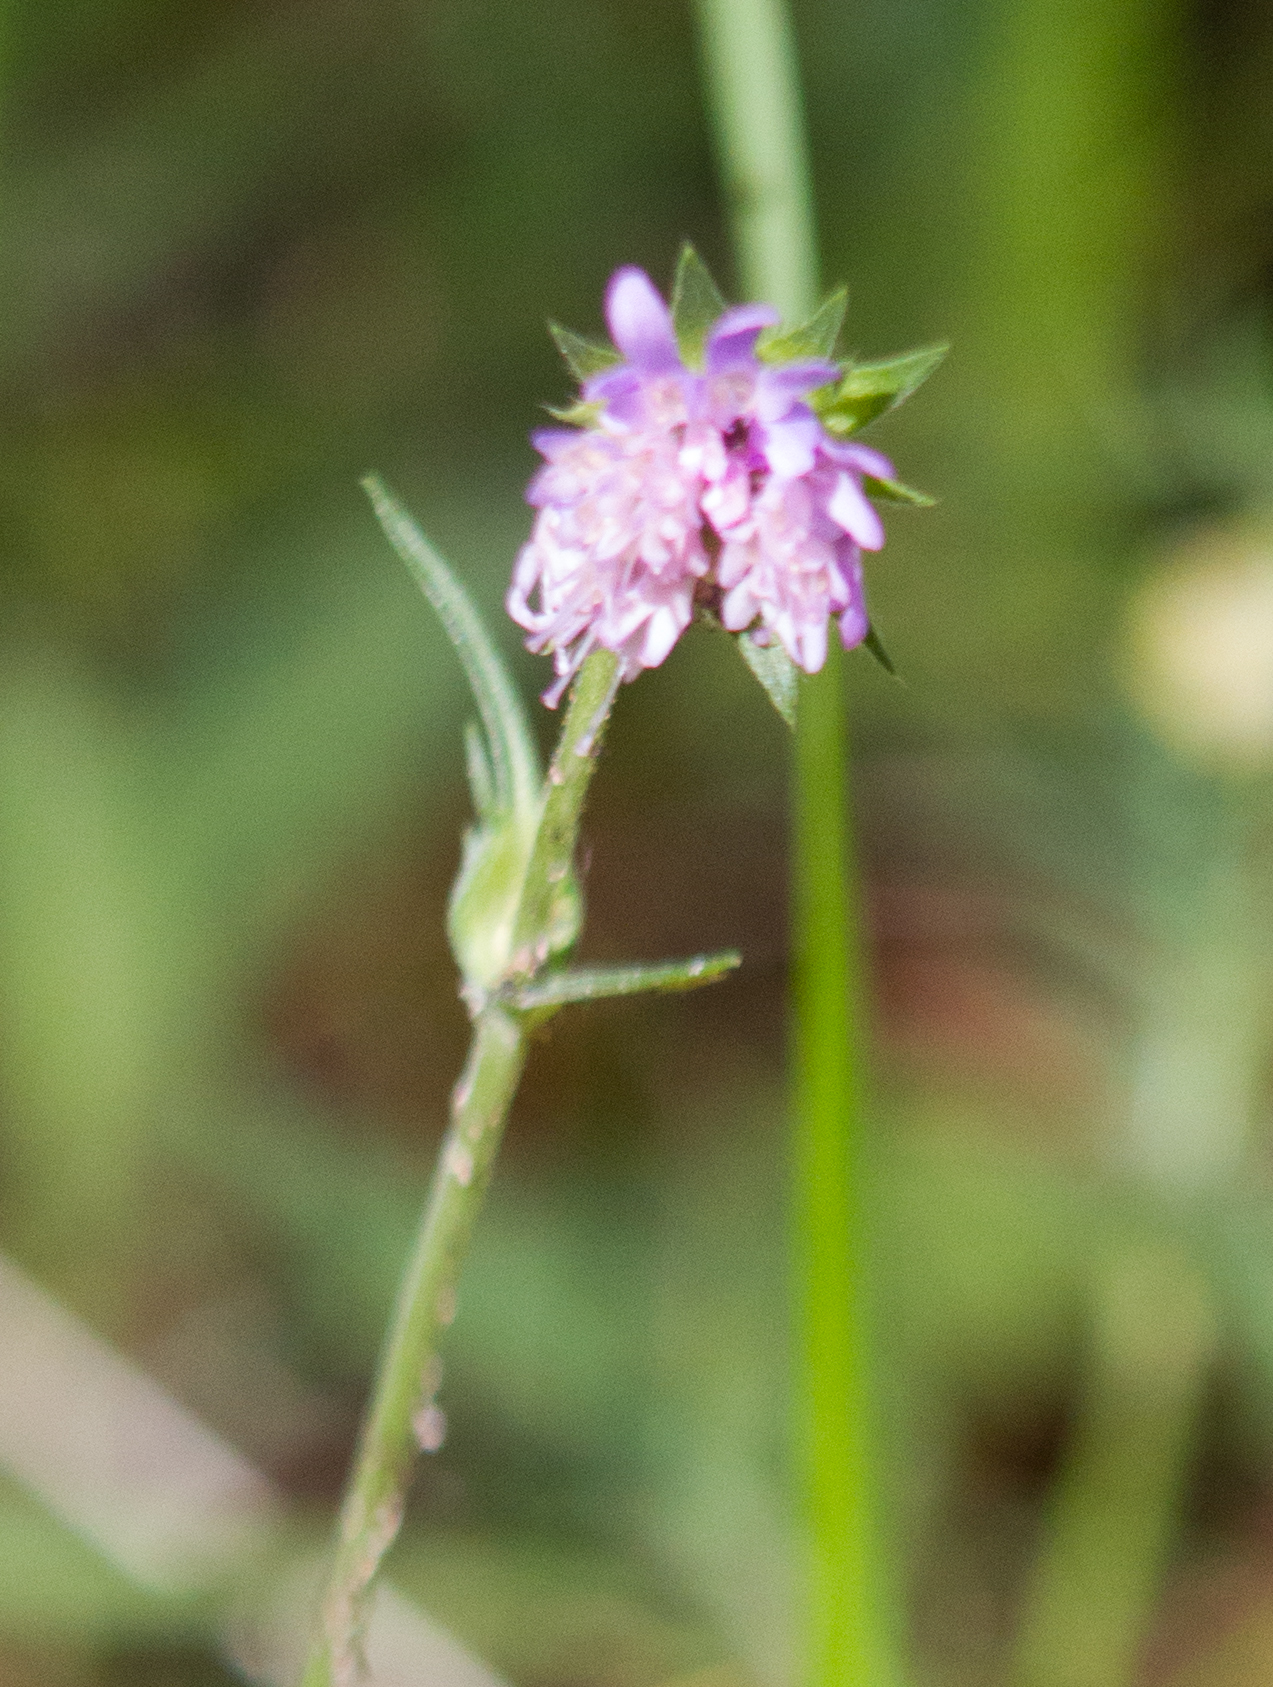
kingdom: Plantae
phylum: Tracheophyta
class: Magnoliopsida
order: Dipsacales
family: Caprifoliaceae
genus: Knautia
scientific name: Knautia arvensis
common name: Field scabiosa
